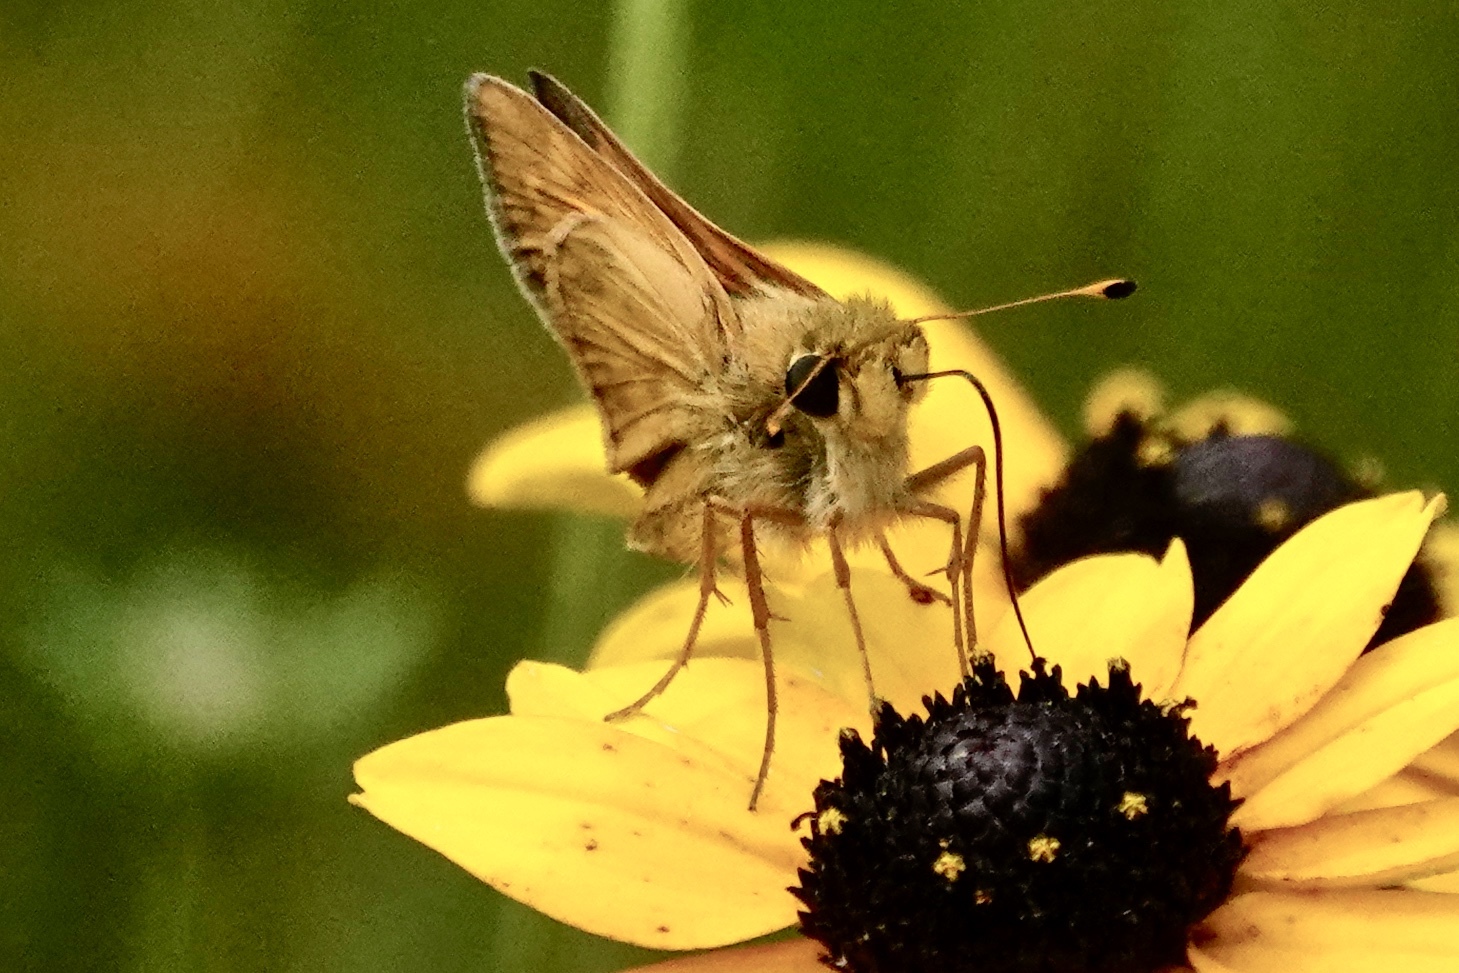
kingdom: Animalia
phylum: Arthropoda
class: Insecta
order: Lepidoptera
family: Hesperiidae
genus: Atalopedes
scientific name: Atalopedes
